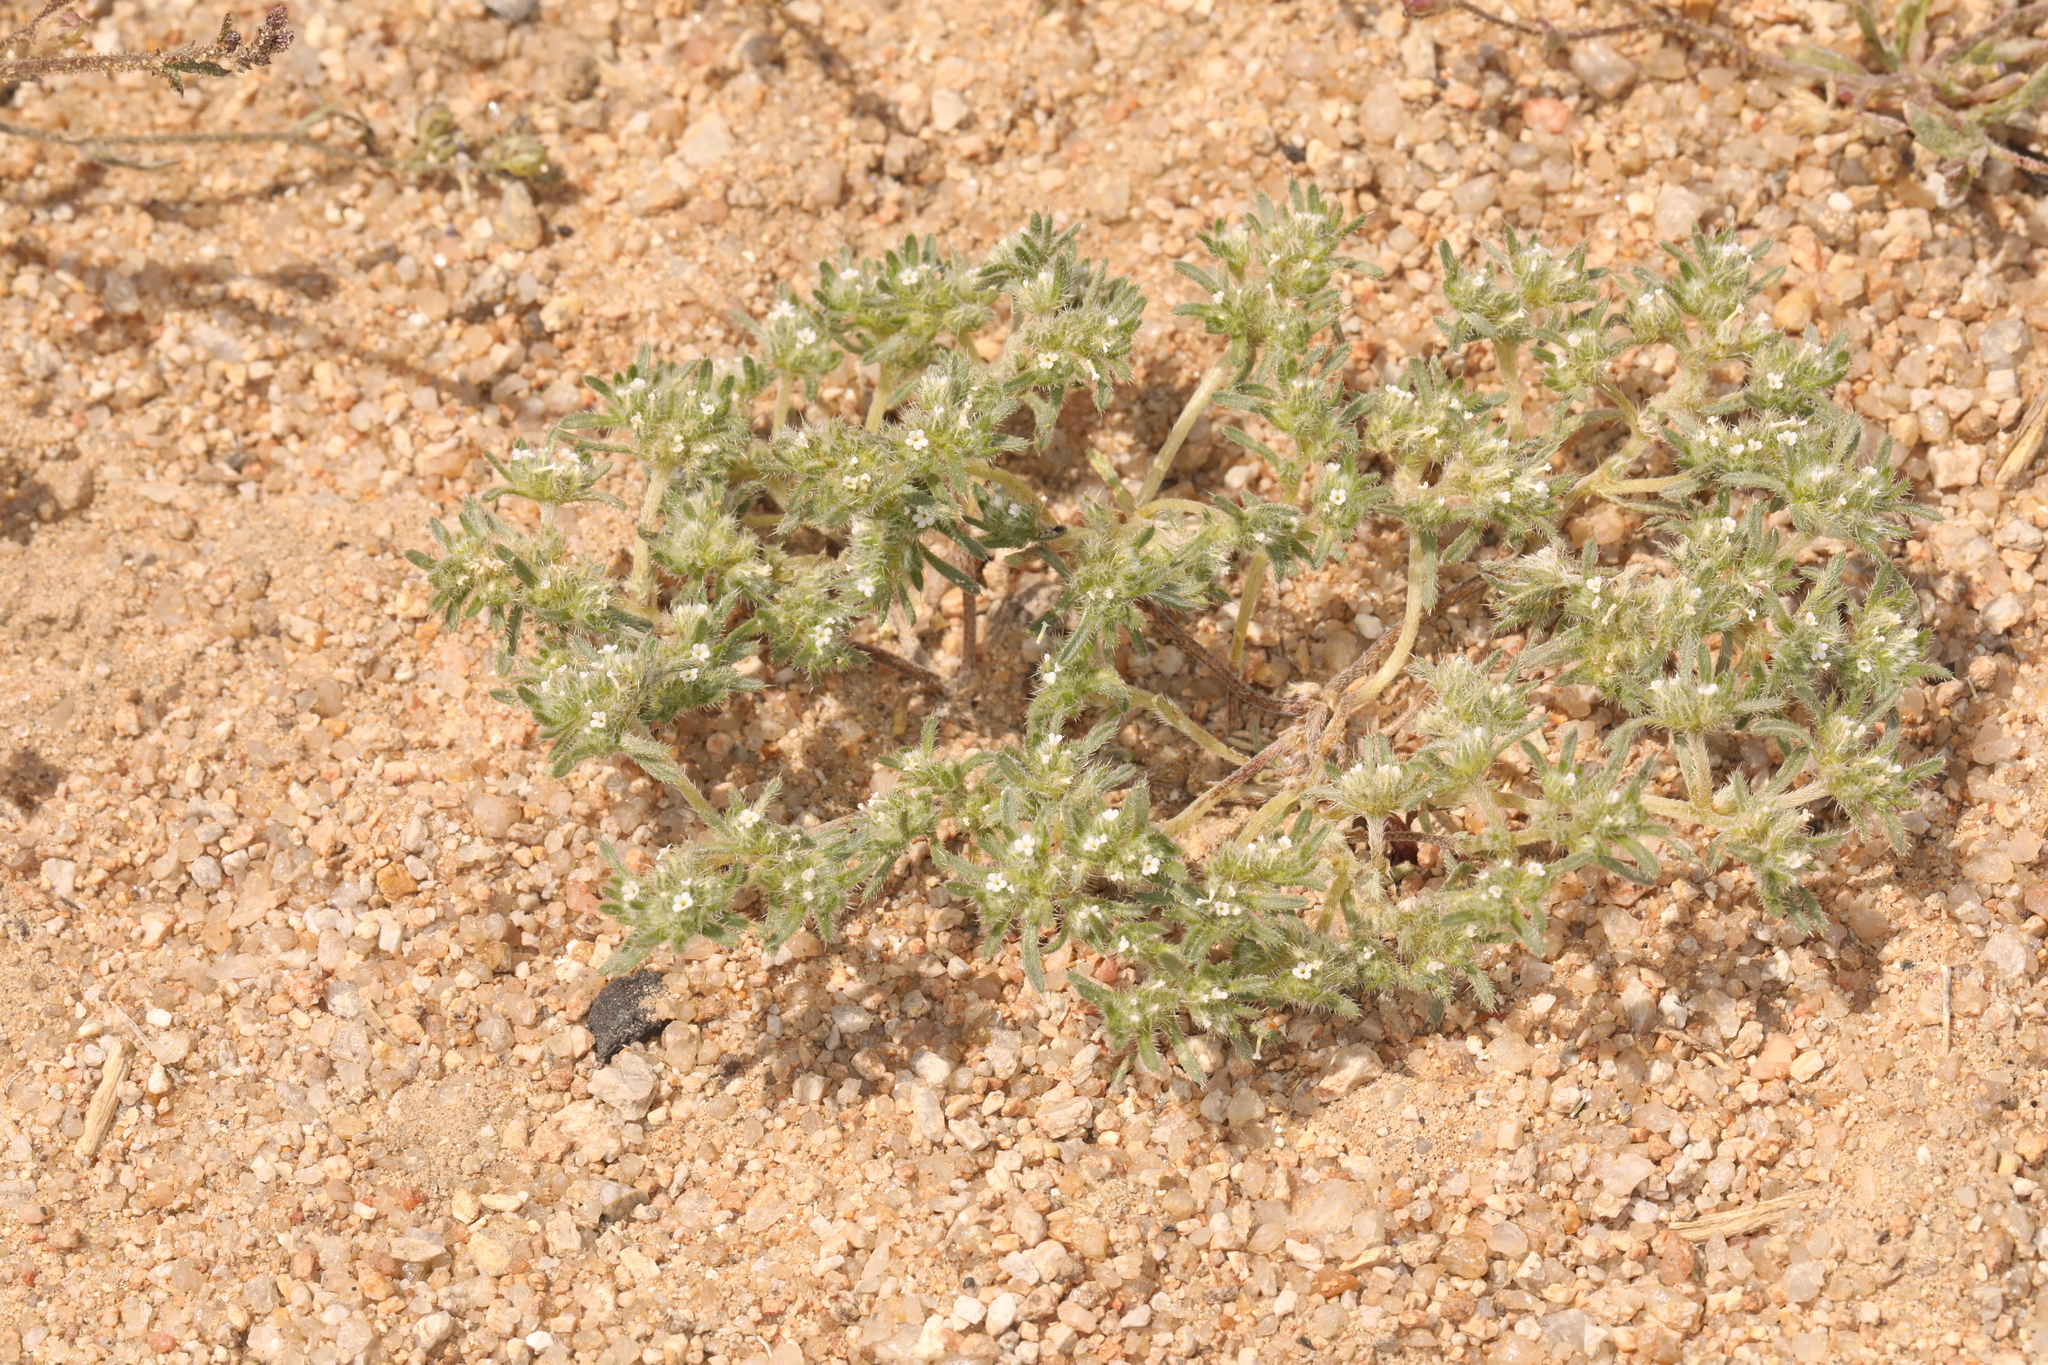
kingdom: Plantae
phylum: Tracheophyta
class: Magnoliopsida
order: Boraginales
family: Boraginaceae
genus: Greeneocharis
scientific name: Greeneocharis circumscissa
